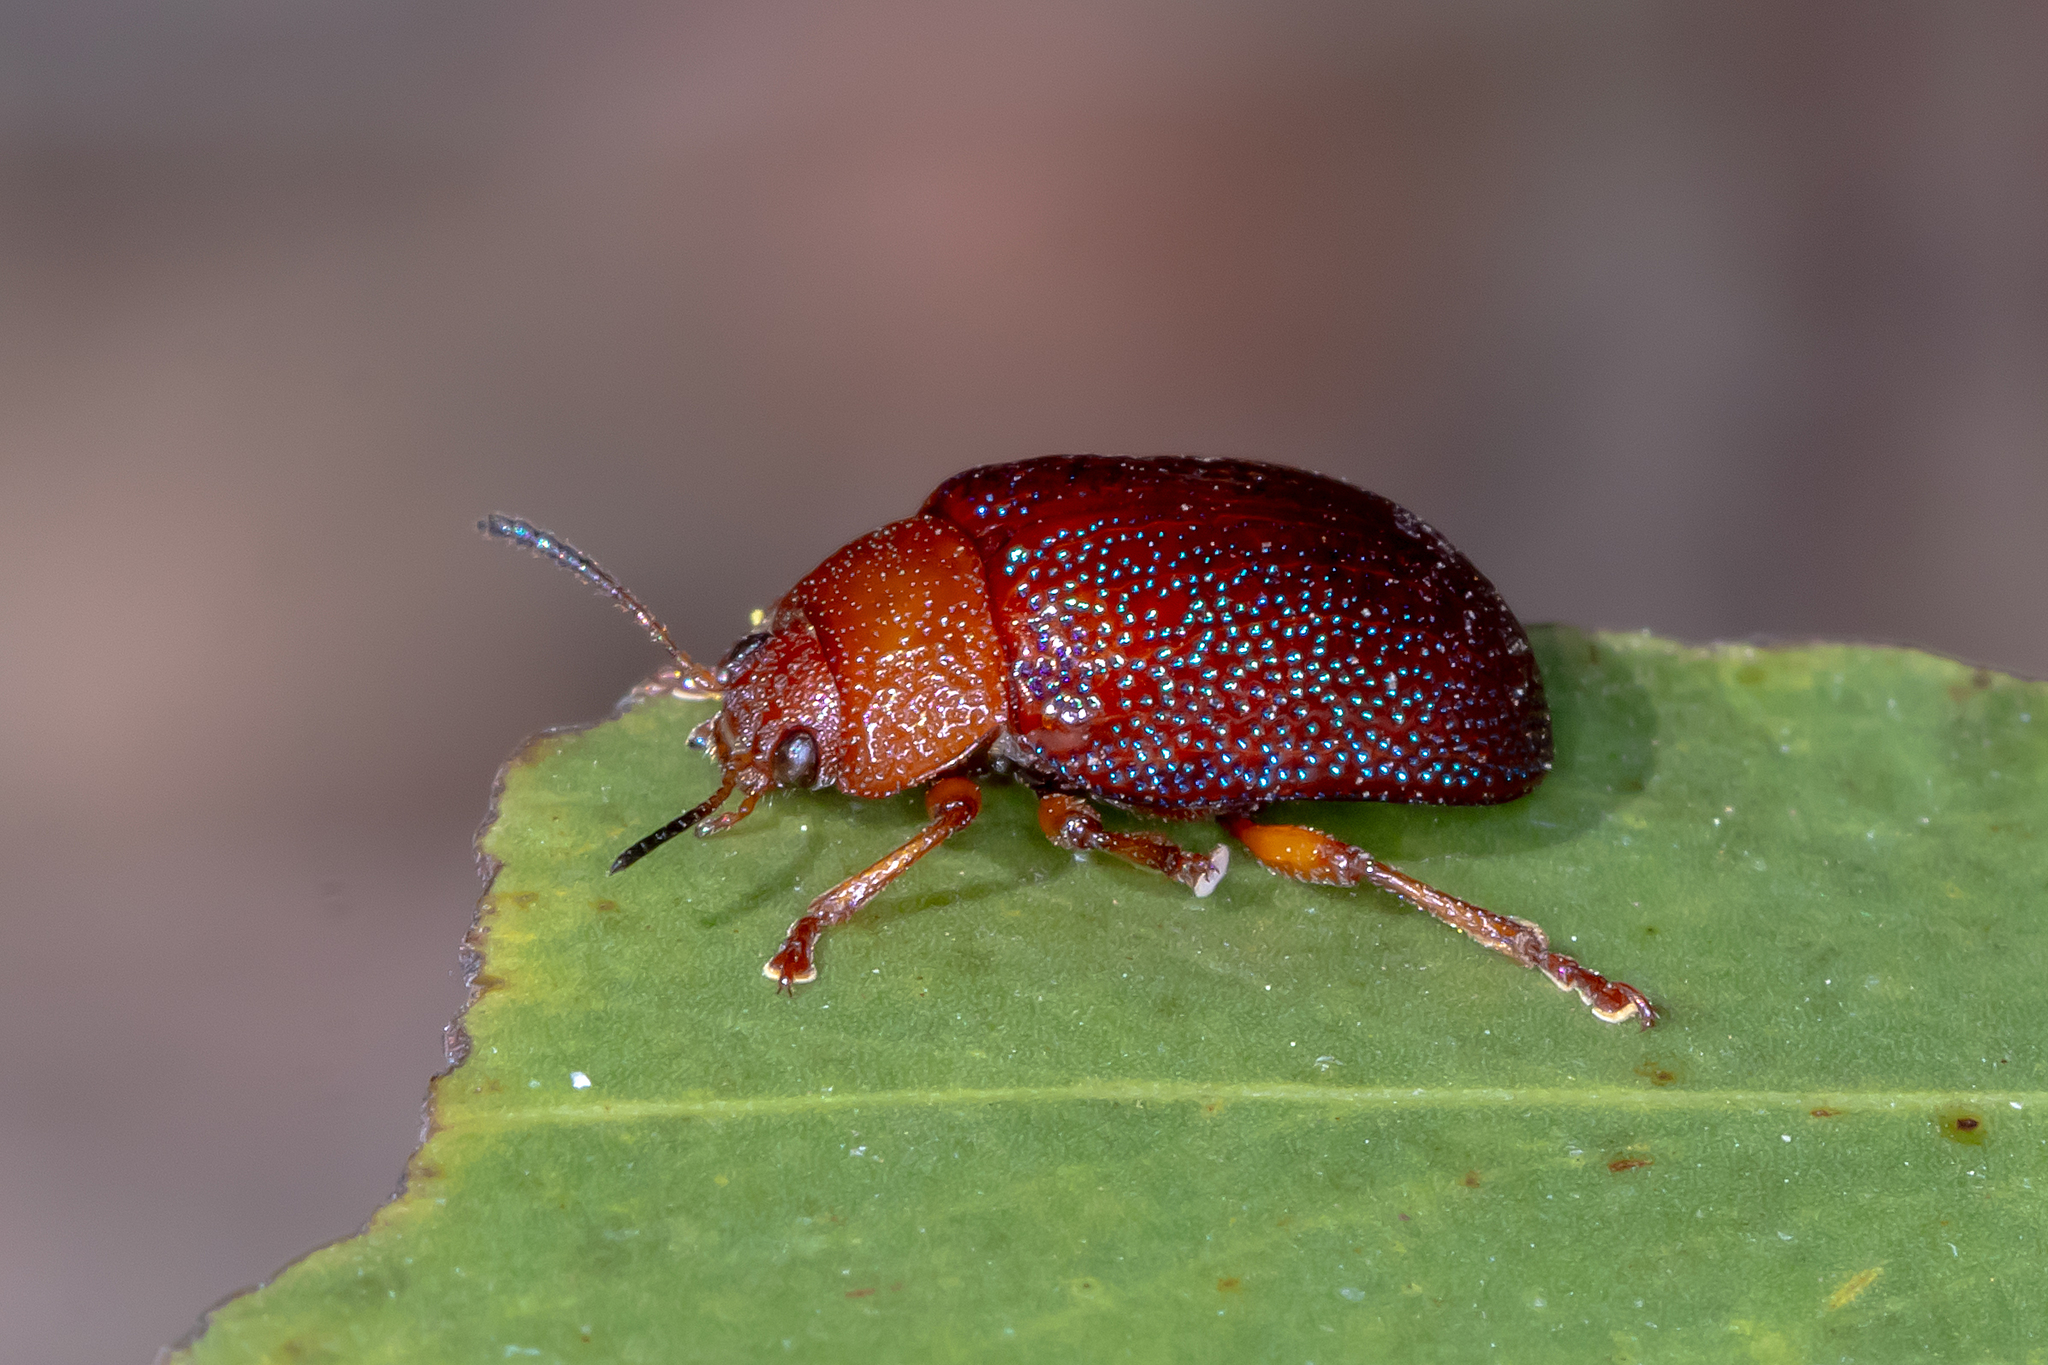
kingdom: Animalia
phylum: Arthropoda
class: Insecta
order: Coleoptera
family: Chrysomelidae
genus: Calomela
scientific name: Calomela
